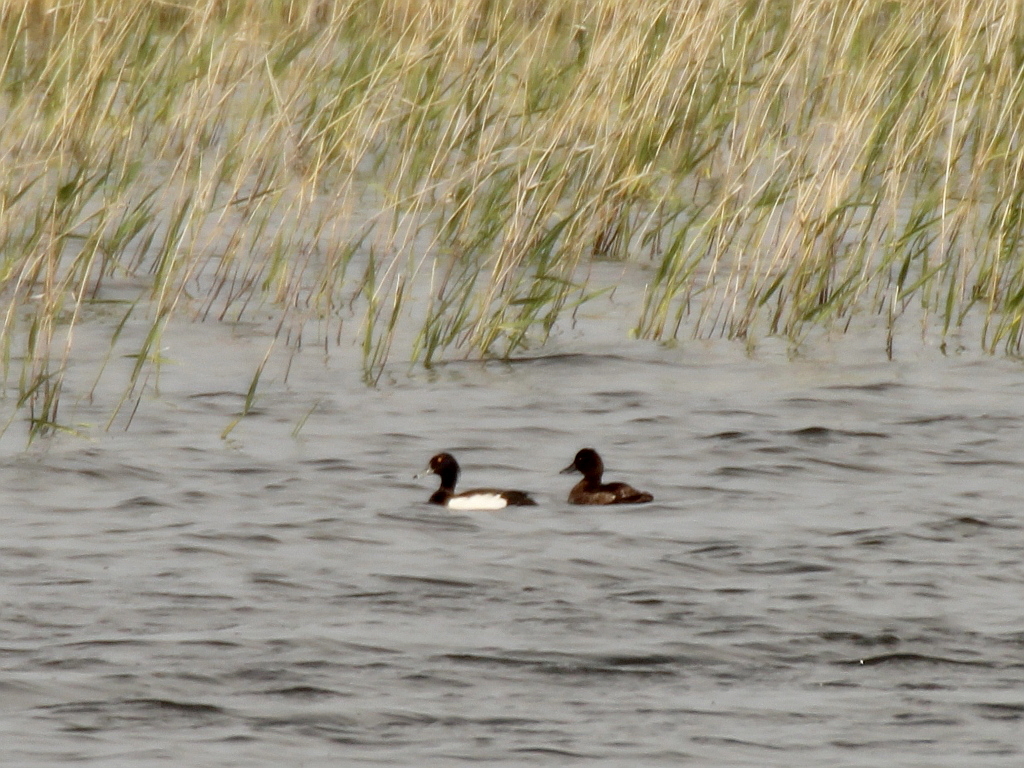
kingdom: Animalia
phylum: Chordata
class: Aves
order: Anseriformes
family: Anatidae
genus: Aythya
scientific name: Aythya fuligula
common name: Tufted duck
